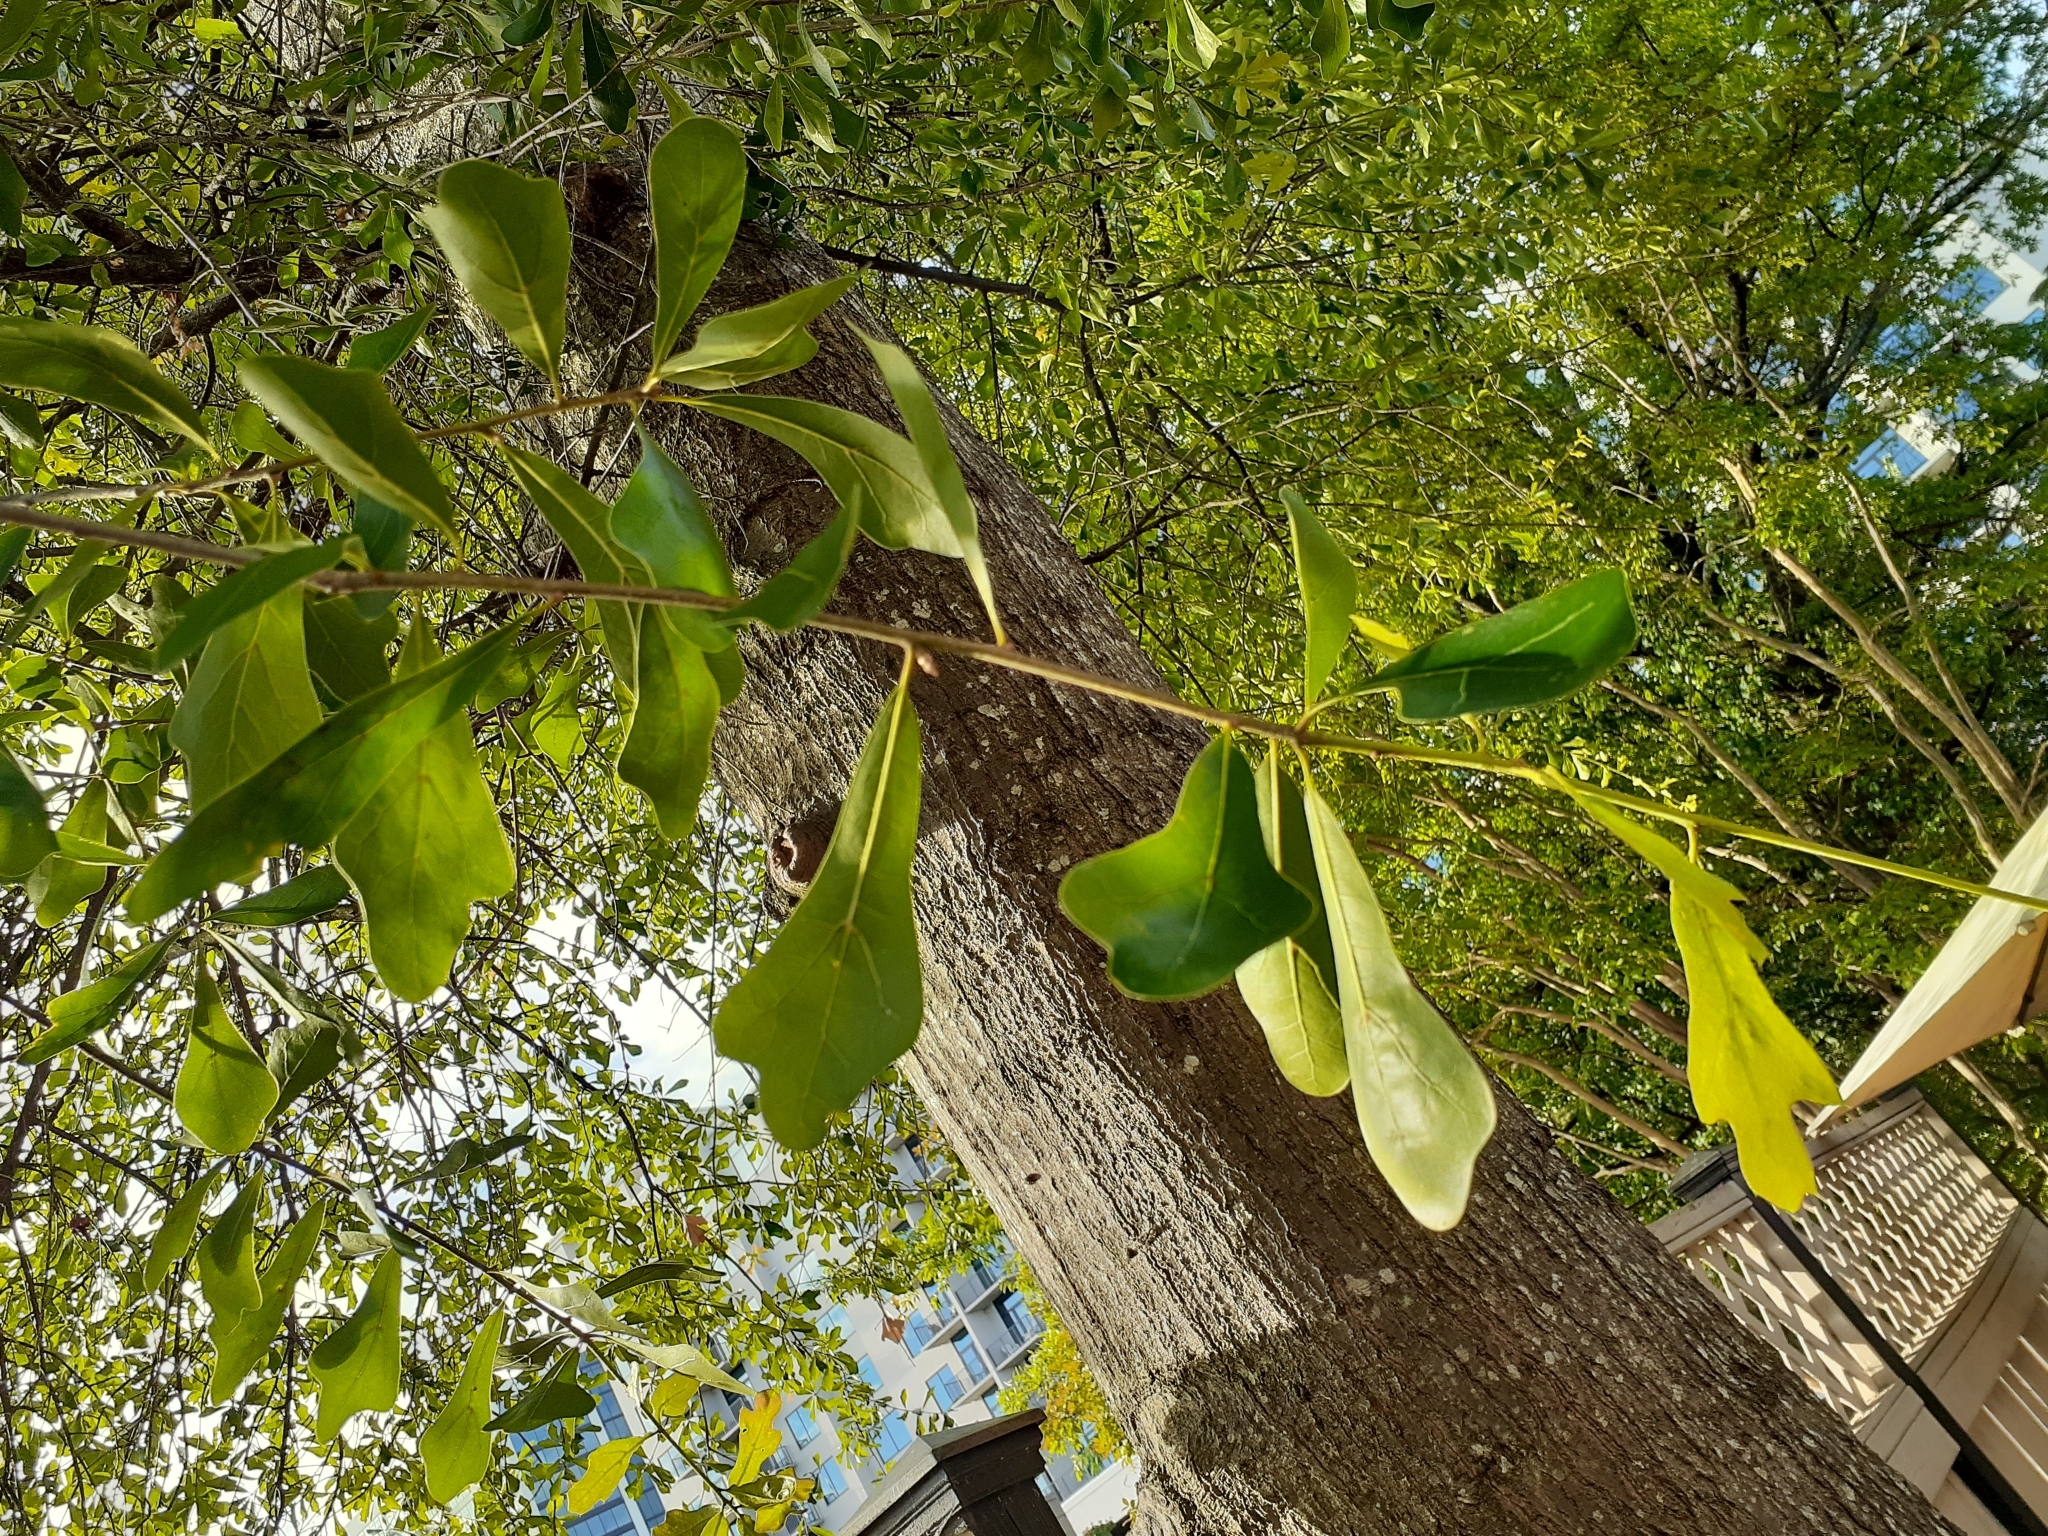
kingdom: Plantae
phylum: Tracheophyta
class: Magnoliopsida
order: Fagales
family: Fagaceae
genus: Quercus
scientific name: Quercus nigra
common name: Water oak
